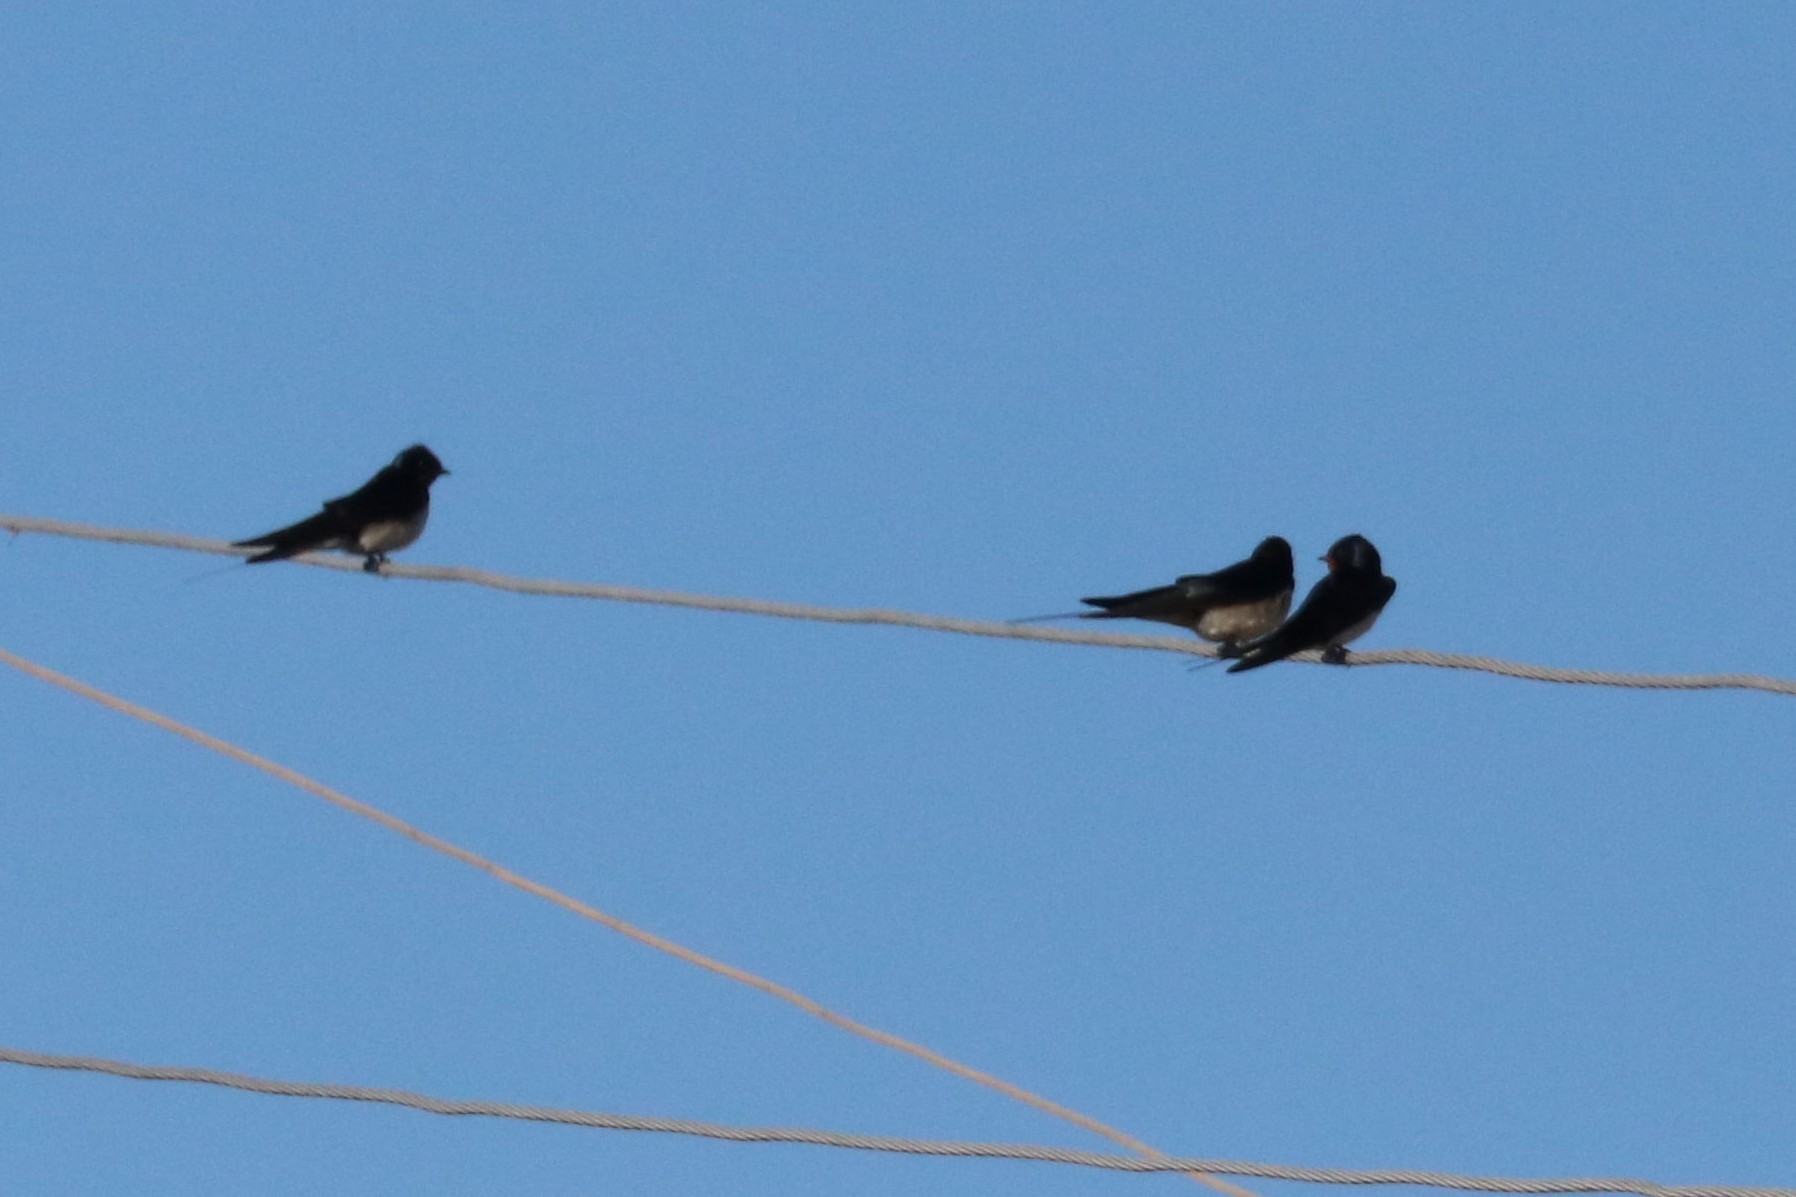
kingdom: Animalia
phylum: Chordata
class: Aves
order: Passeriformes
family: Hirundinidae
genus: Hirundo
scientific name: Hirundo rustica
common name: Barn swallow
